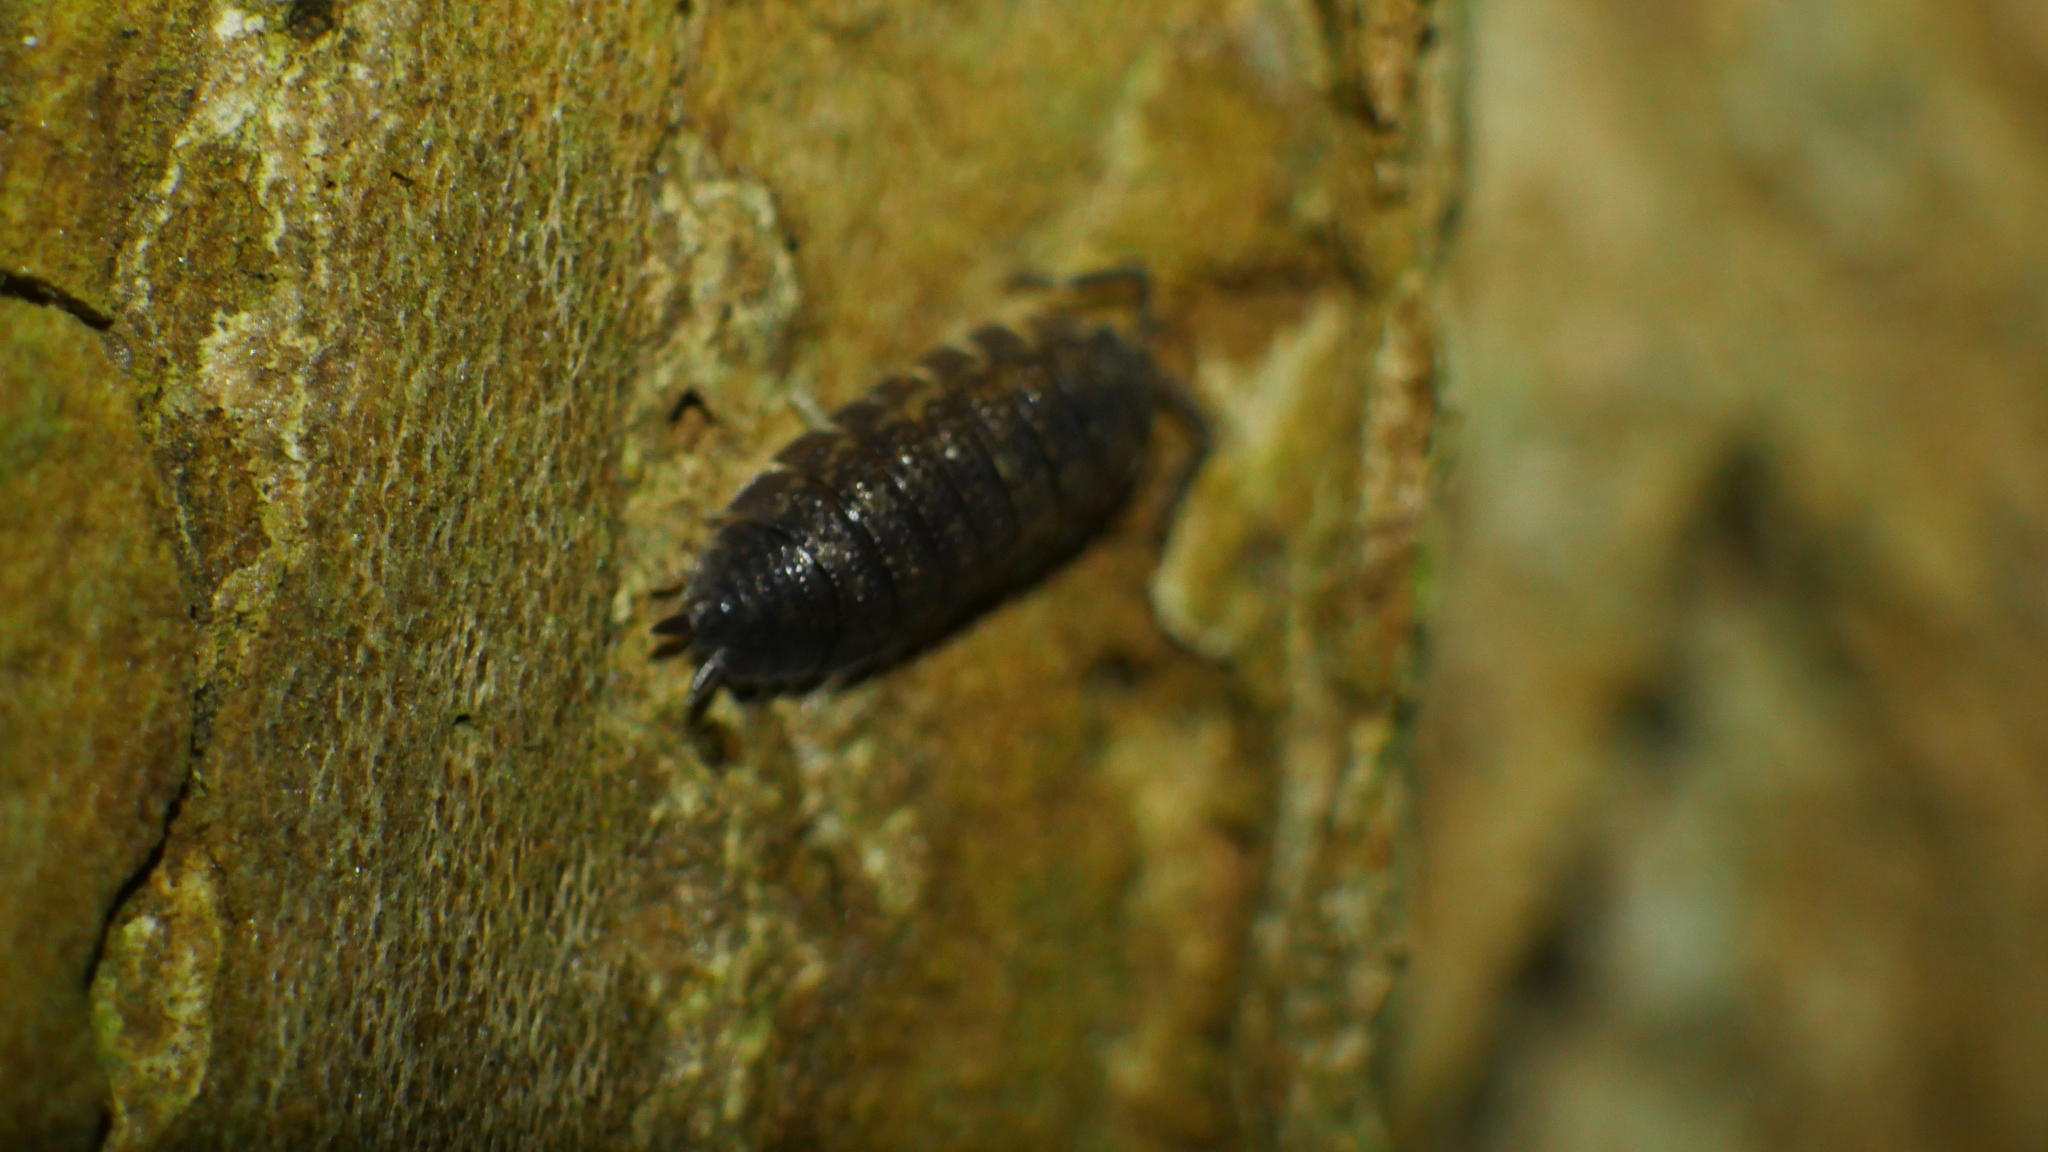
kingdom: Animalia
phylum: Arthropoda
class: Malacostraca
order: Isopoda
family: Porcellionidae
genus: Porcellio
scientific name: Porcellio scaber
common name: Common rough woodlouse
